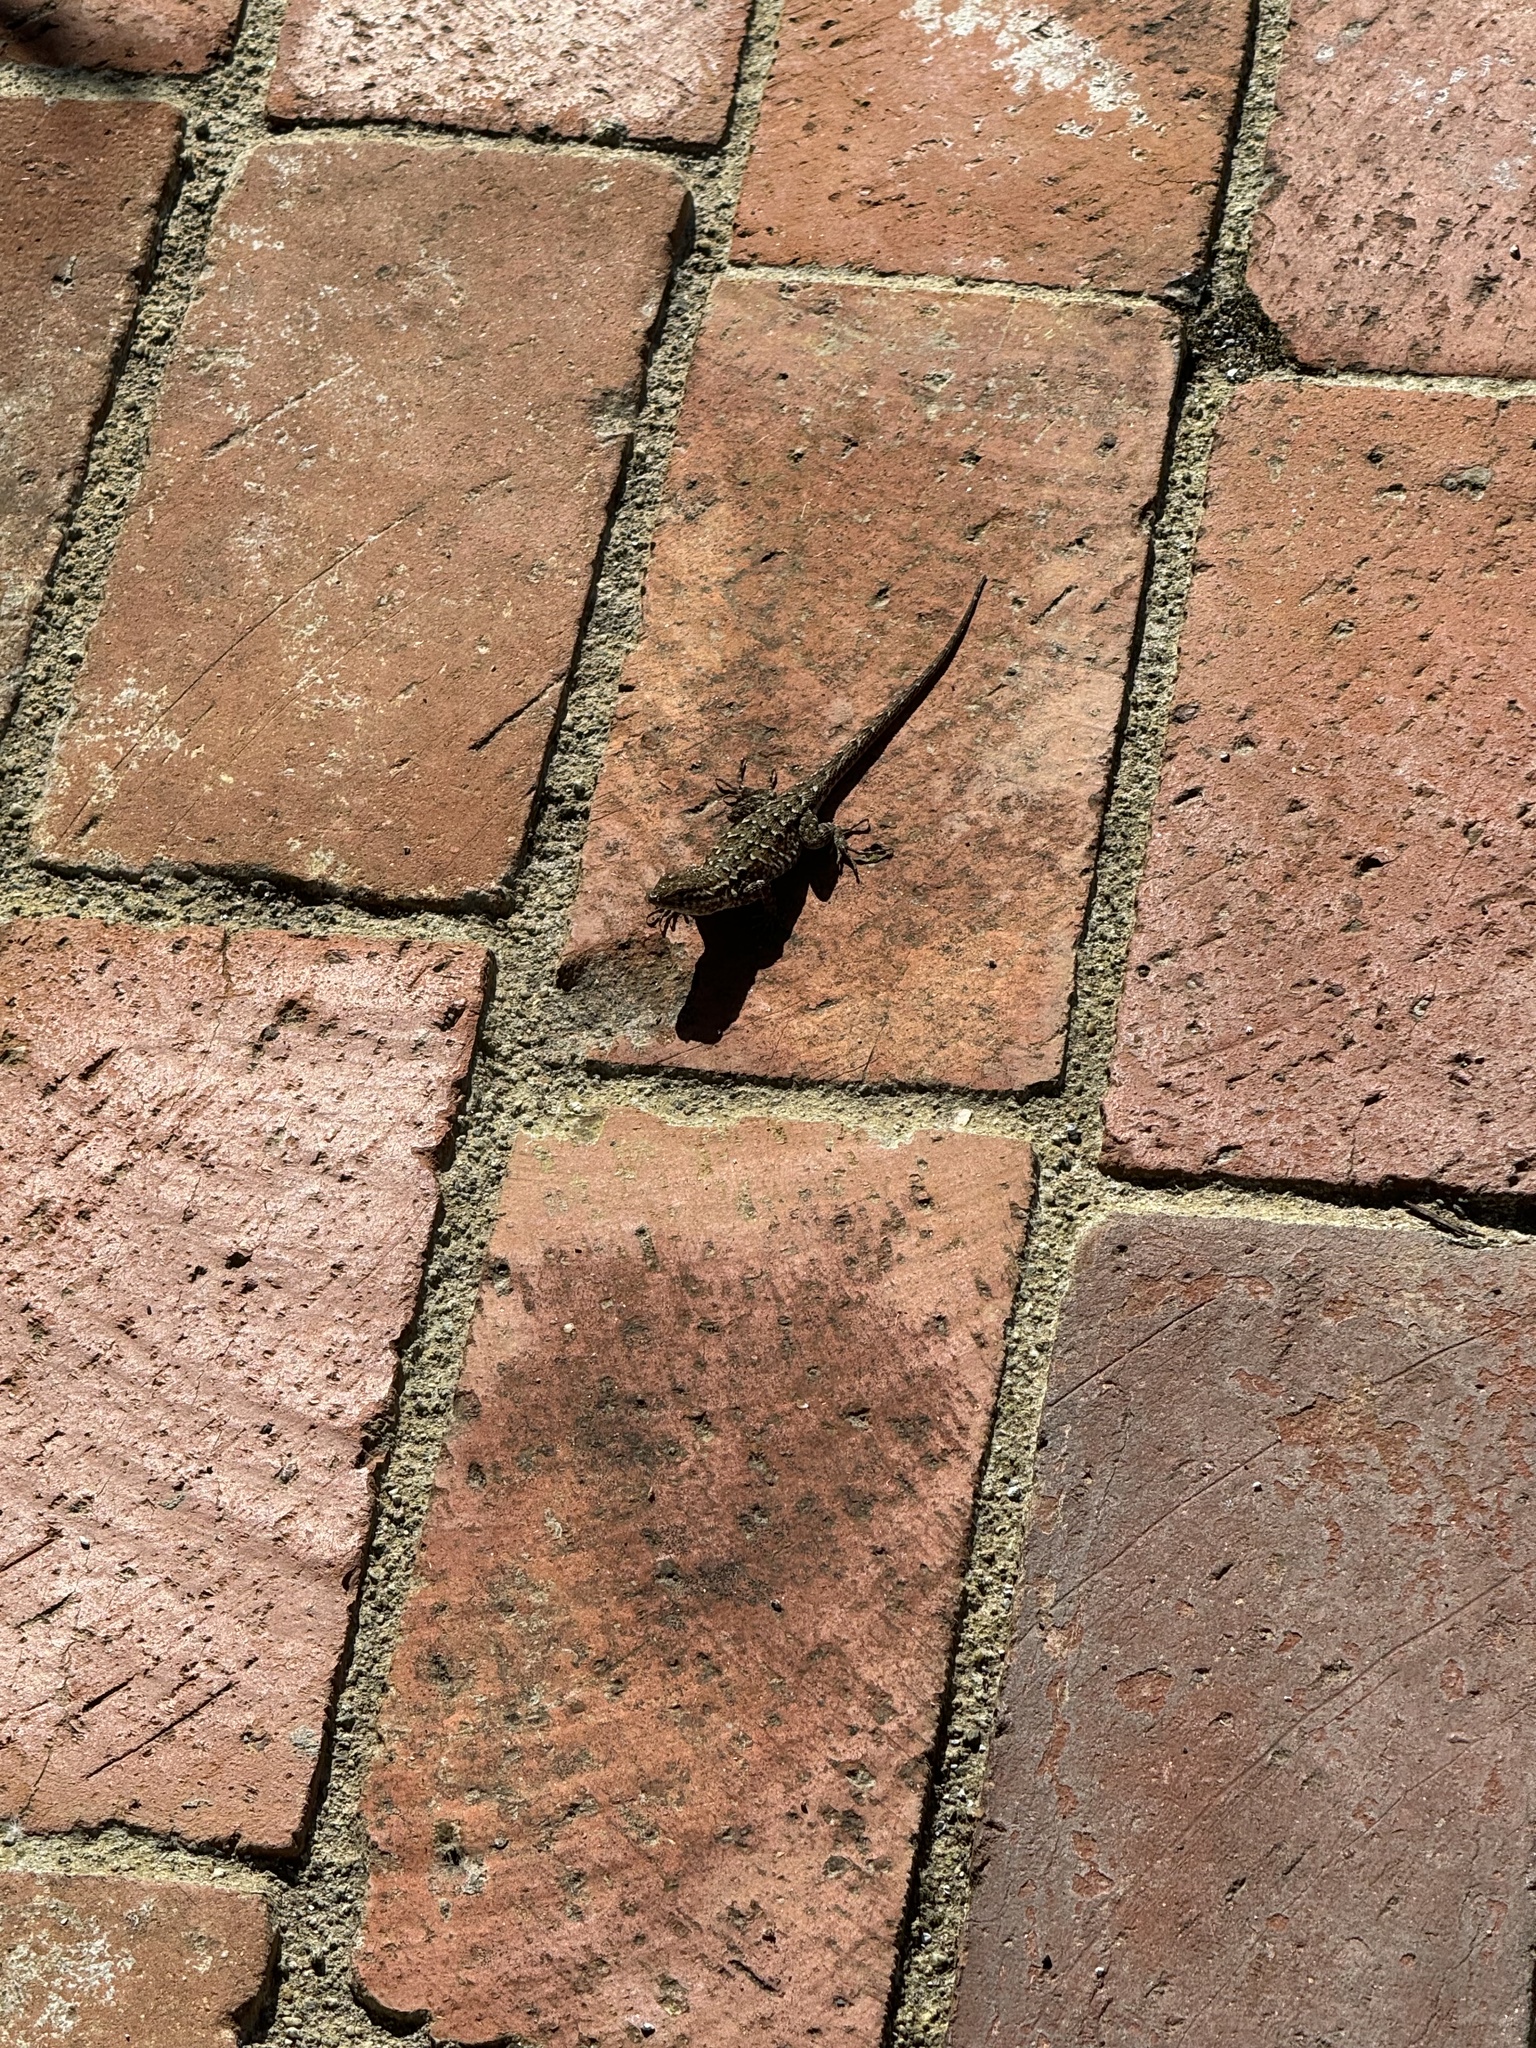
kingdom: Animalia
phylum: Chordata
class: Squamata
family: Phrynosomatidae
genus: Uta
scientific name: Uta stansburiana
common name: Side-blotched lizard
